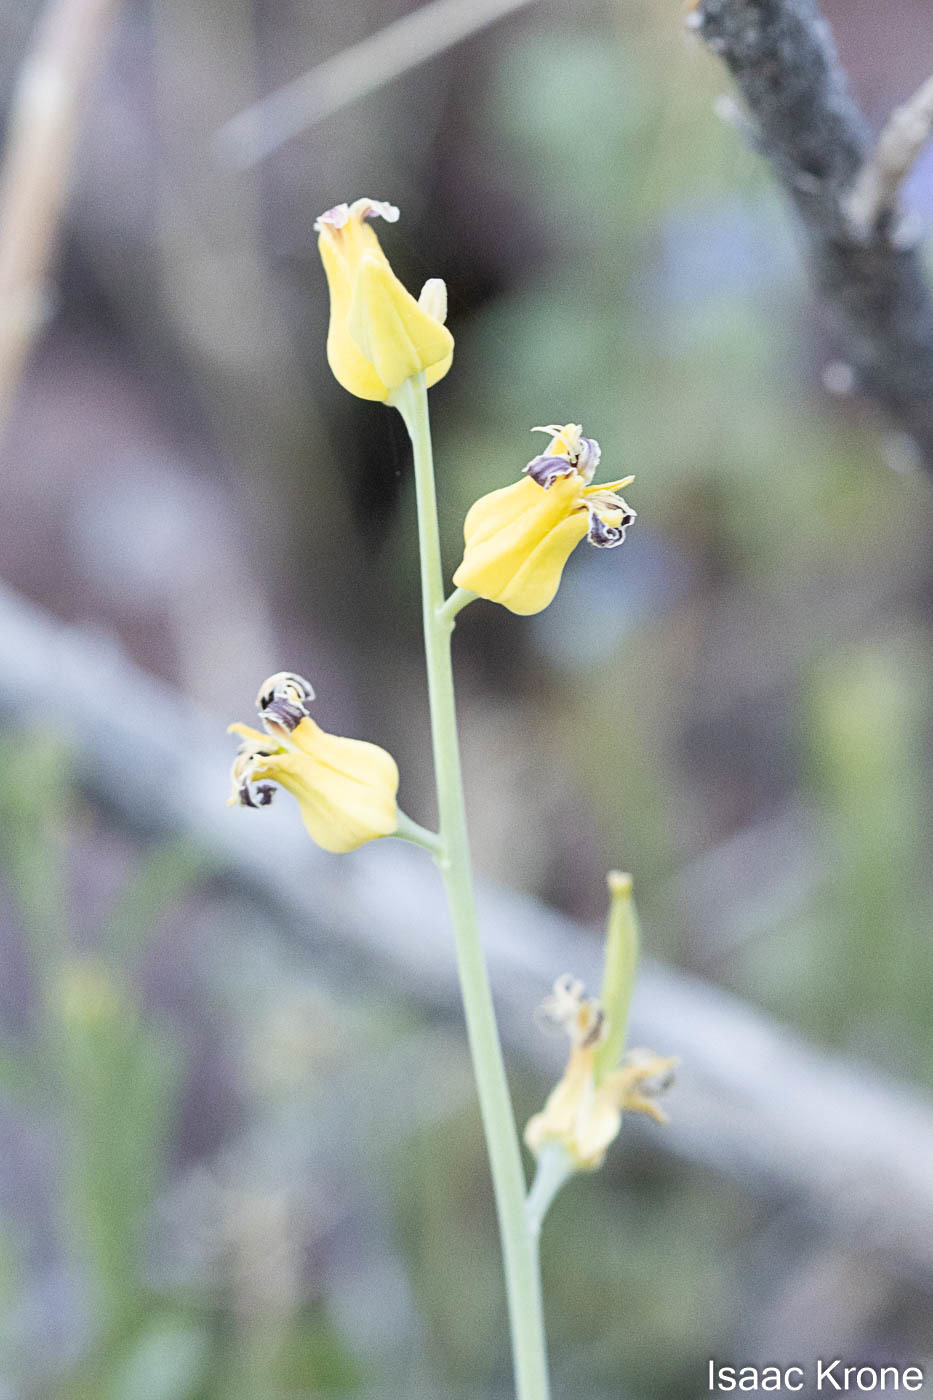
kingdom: Plantae
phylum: Tracheophyta
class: Magnoliopsida
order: Brassicales
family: Brassicaceae
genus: Streptanthus
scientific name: Streptanthus carinatus
